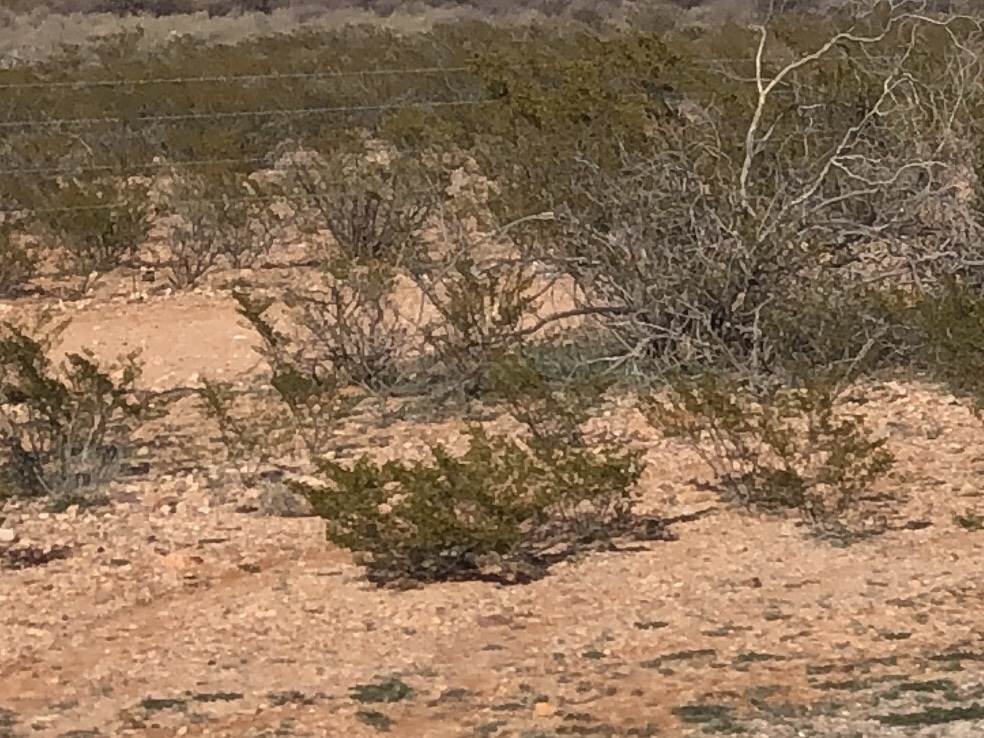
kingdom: Plantae
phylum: Tracheophyta
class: Magnoliopsida
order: Zygophyllales
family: Zygophyllaceae
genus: Larrea
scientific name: Larrea tridentata
